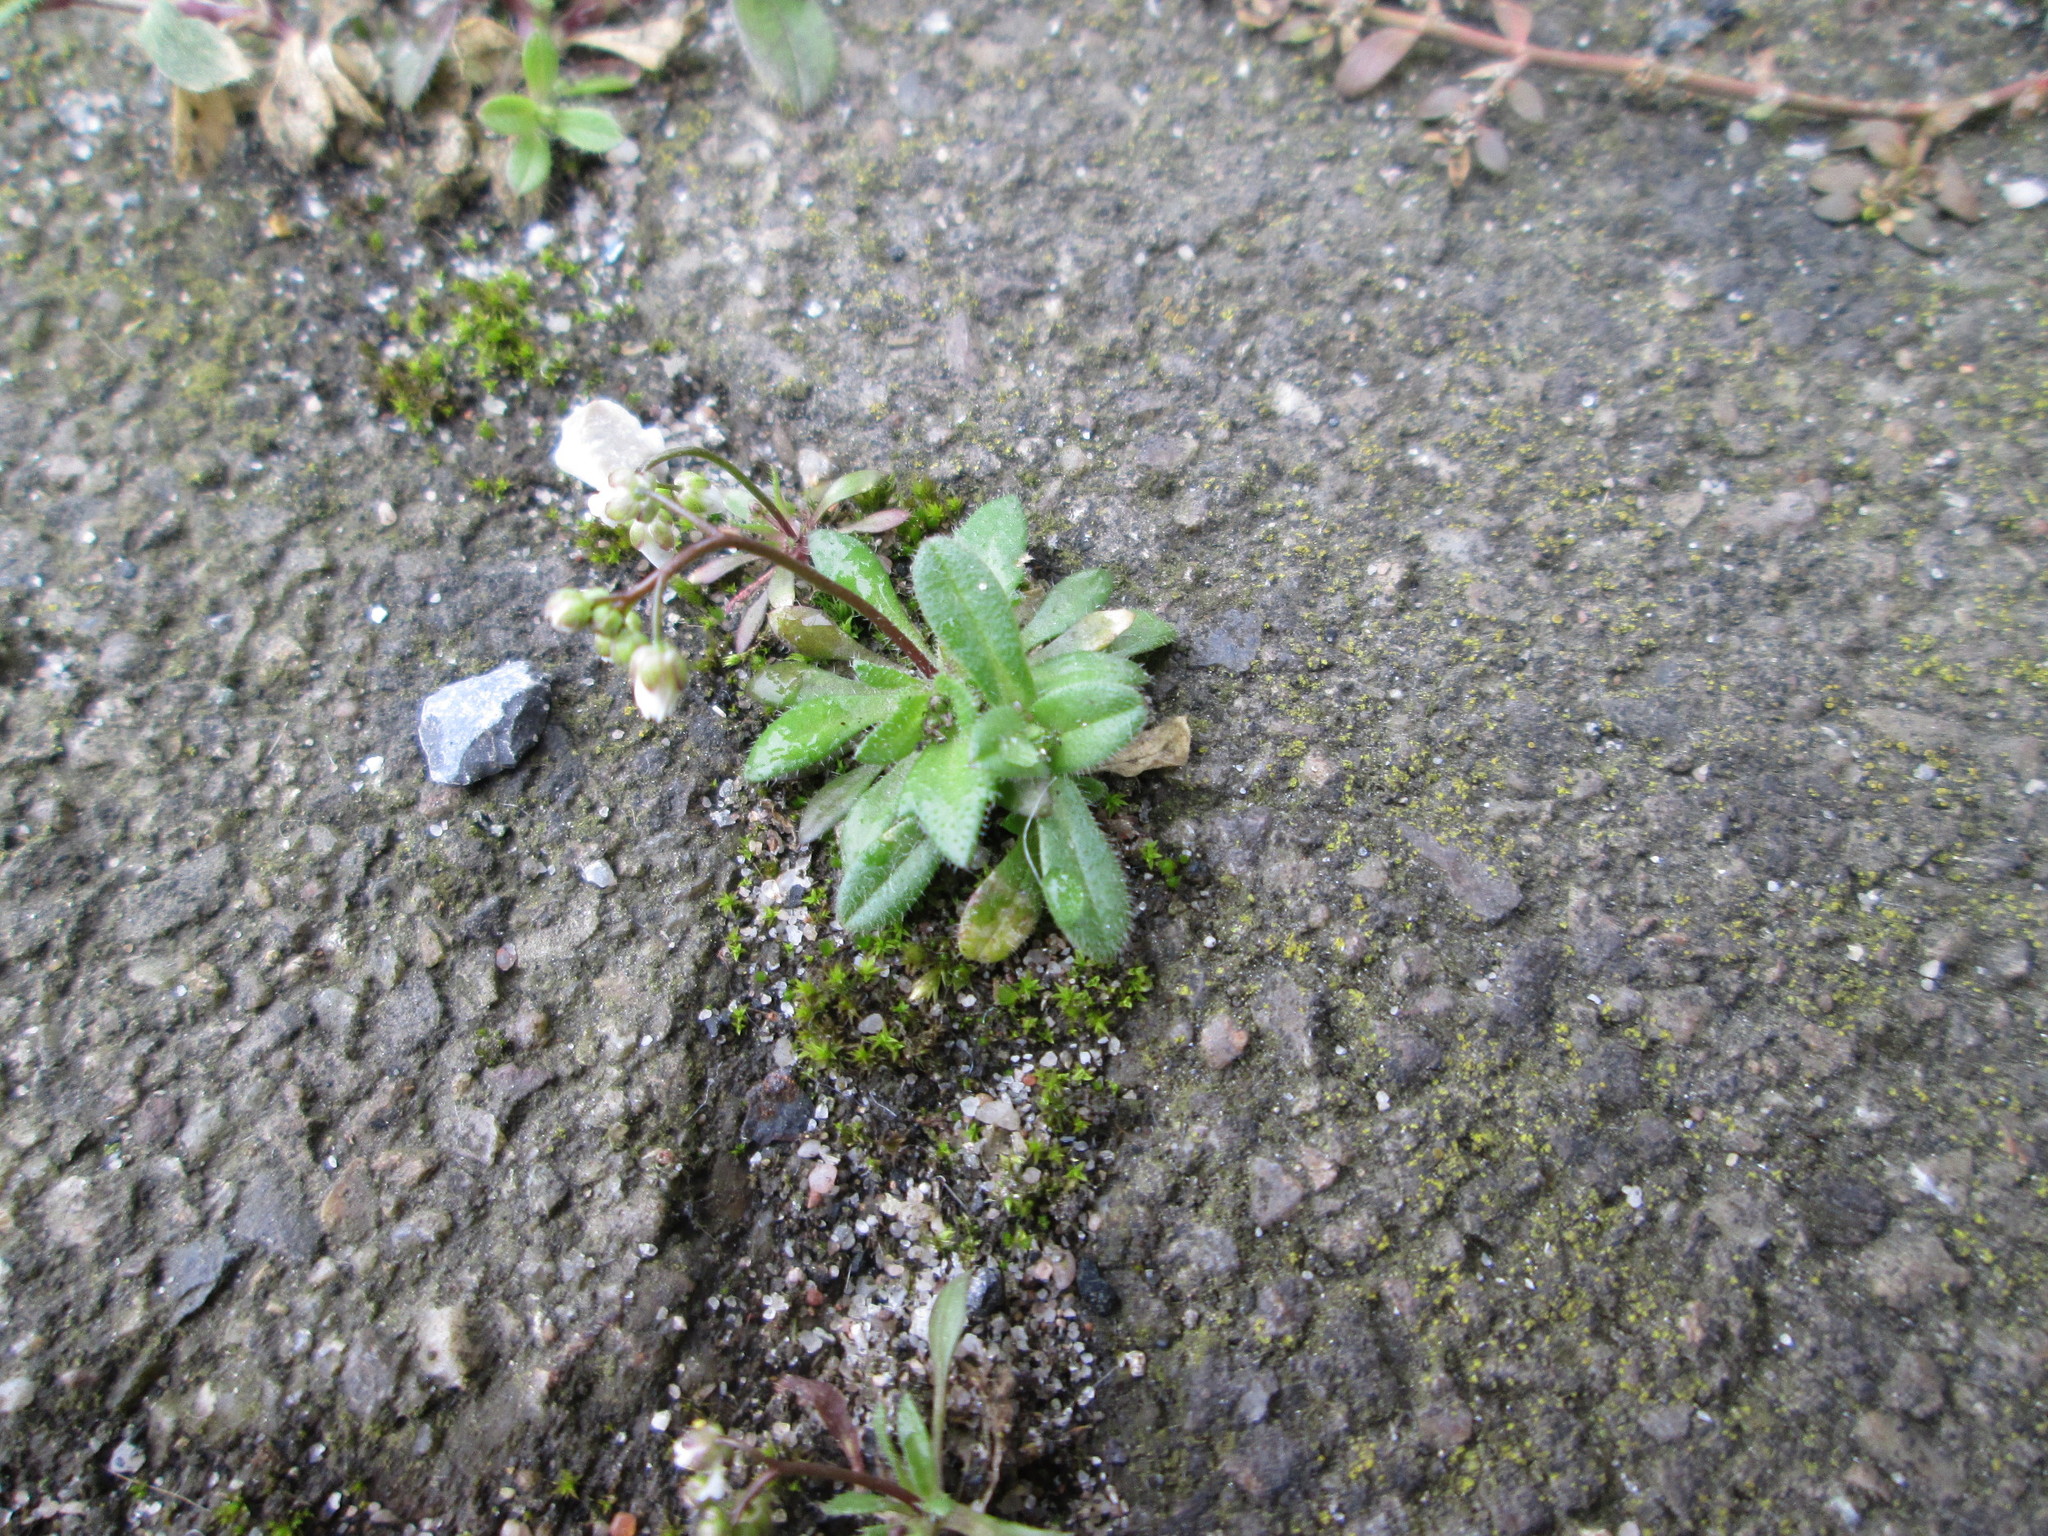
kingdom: Plantae
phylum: Tracheophyta
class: Magnoliopsida
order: Brassicales
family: Brassicaceae
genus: Draba
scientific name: Draba verna
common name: Spring draba
